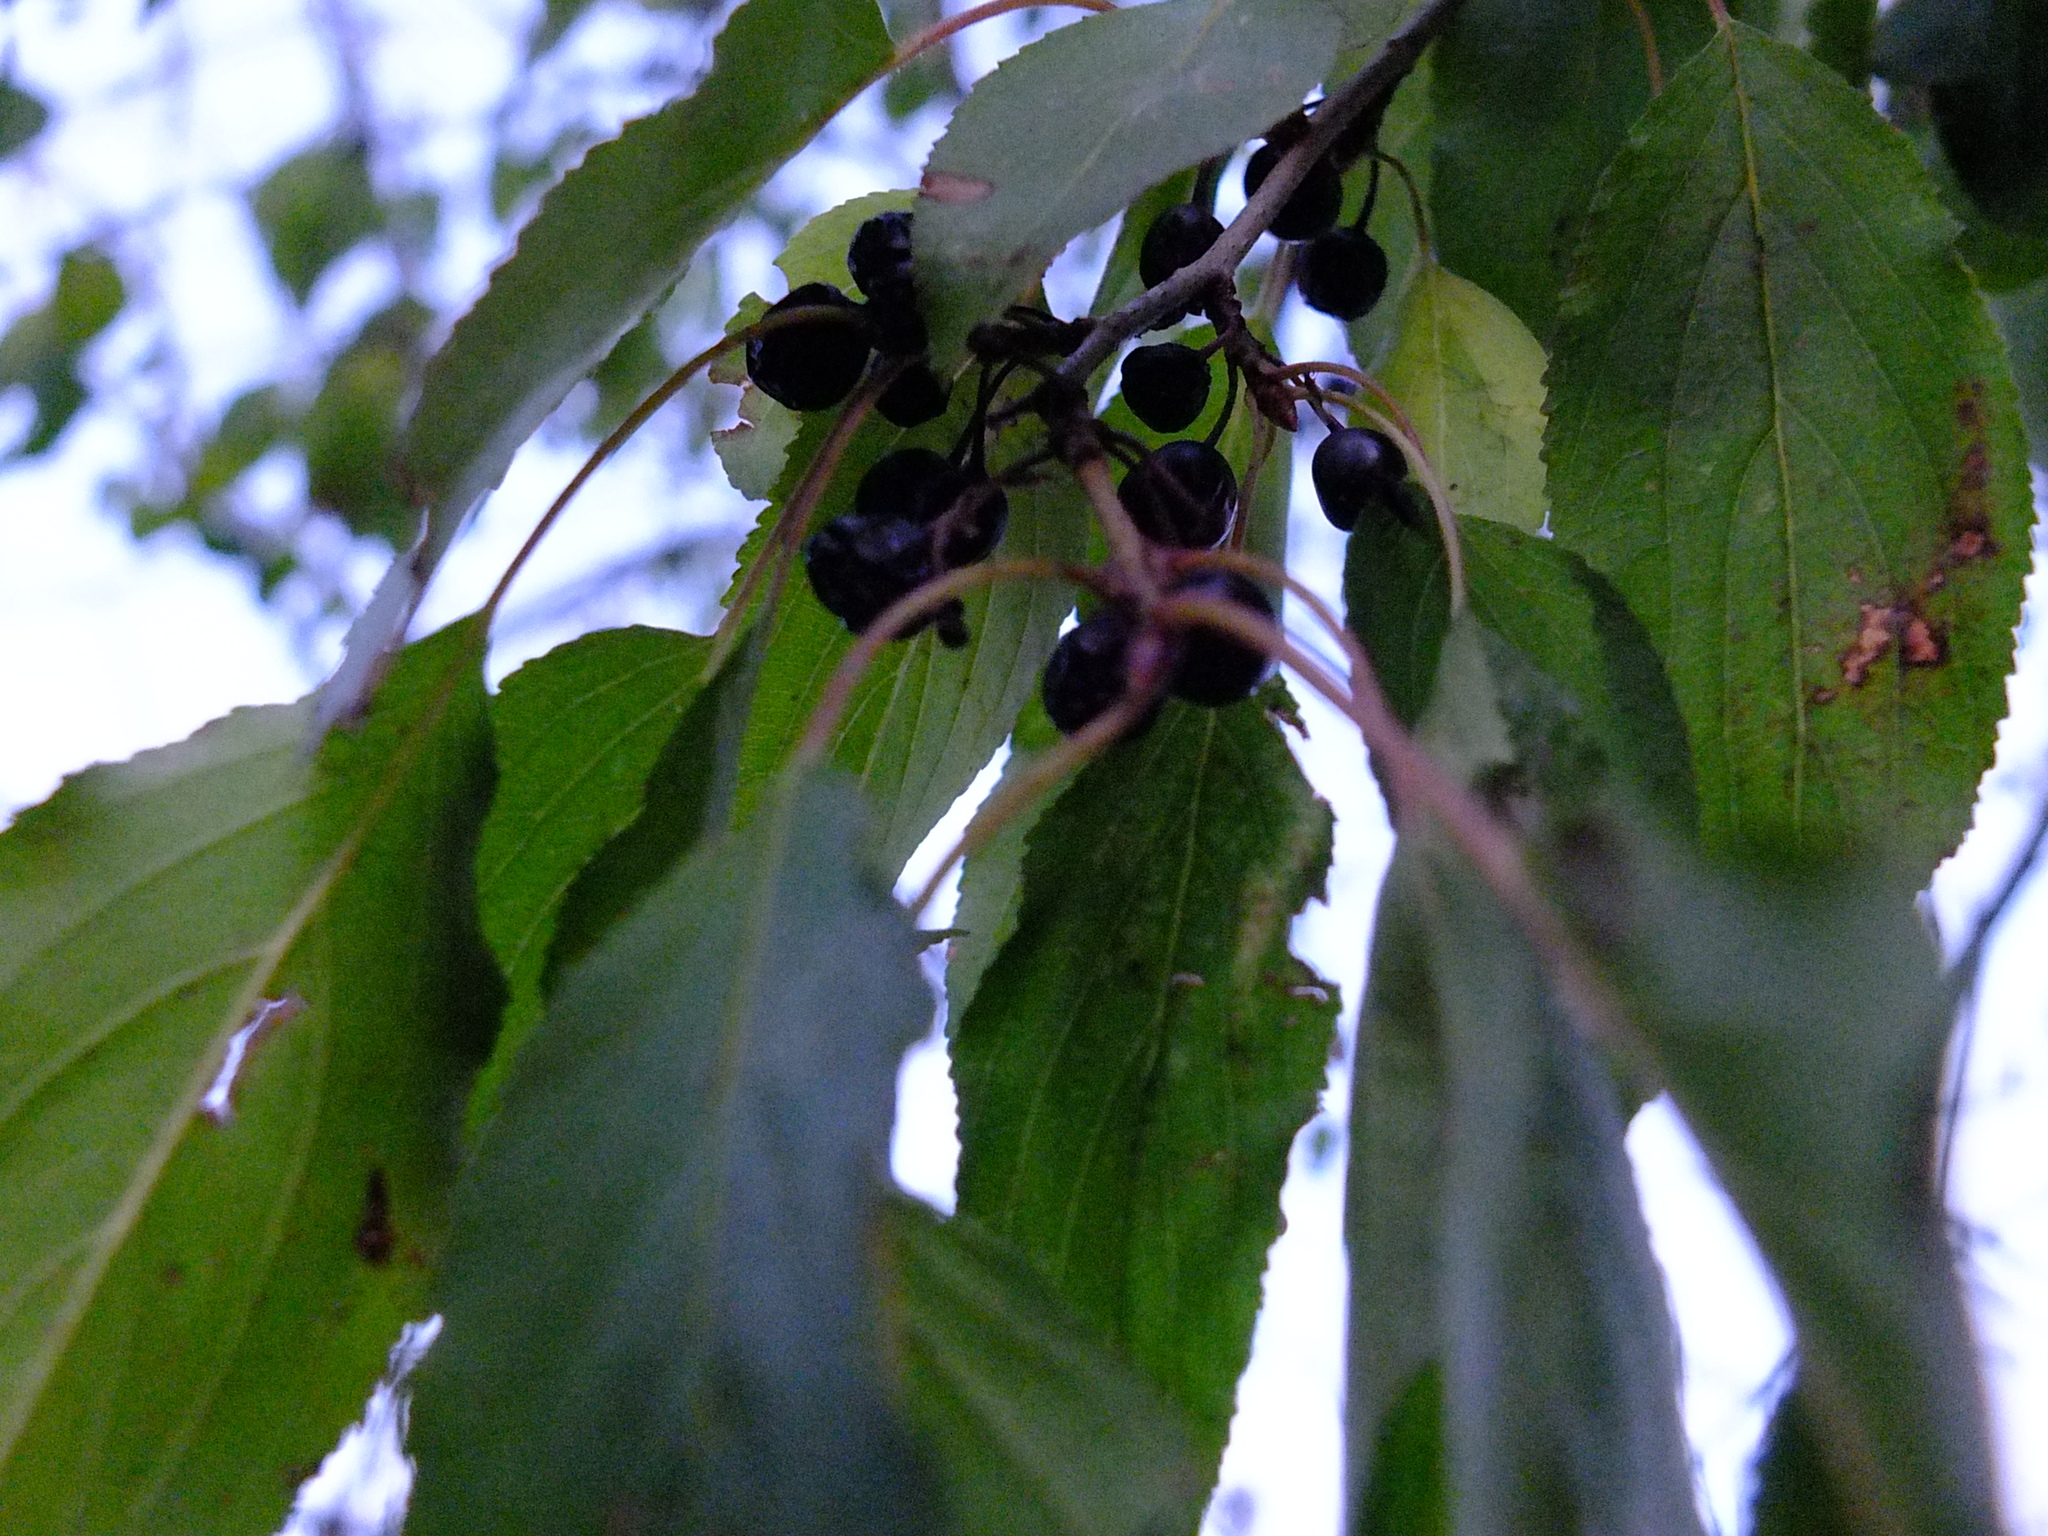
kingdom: Plantae
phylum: Tracheophyta
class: Magnoliopsida
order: Rosales
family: Rhamnaceae
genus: Rhamnus
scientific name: Rhamnus cathartica
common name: Common buckthorn
